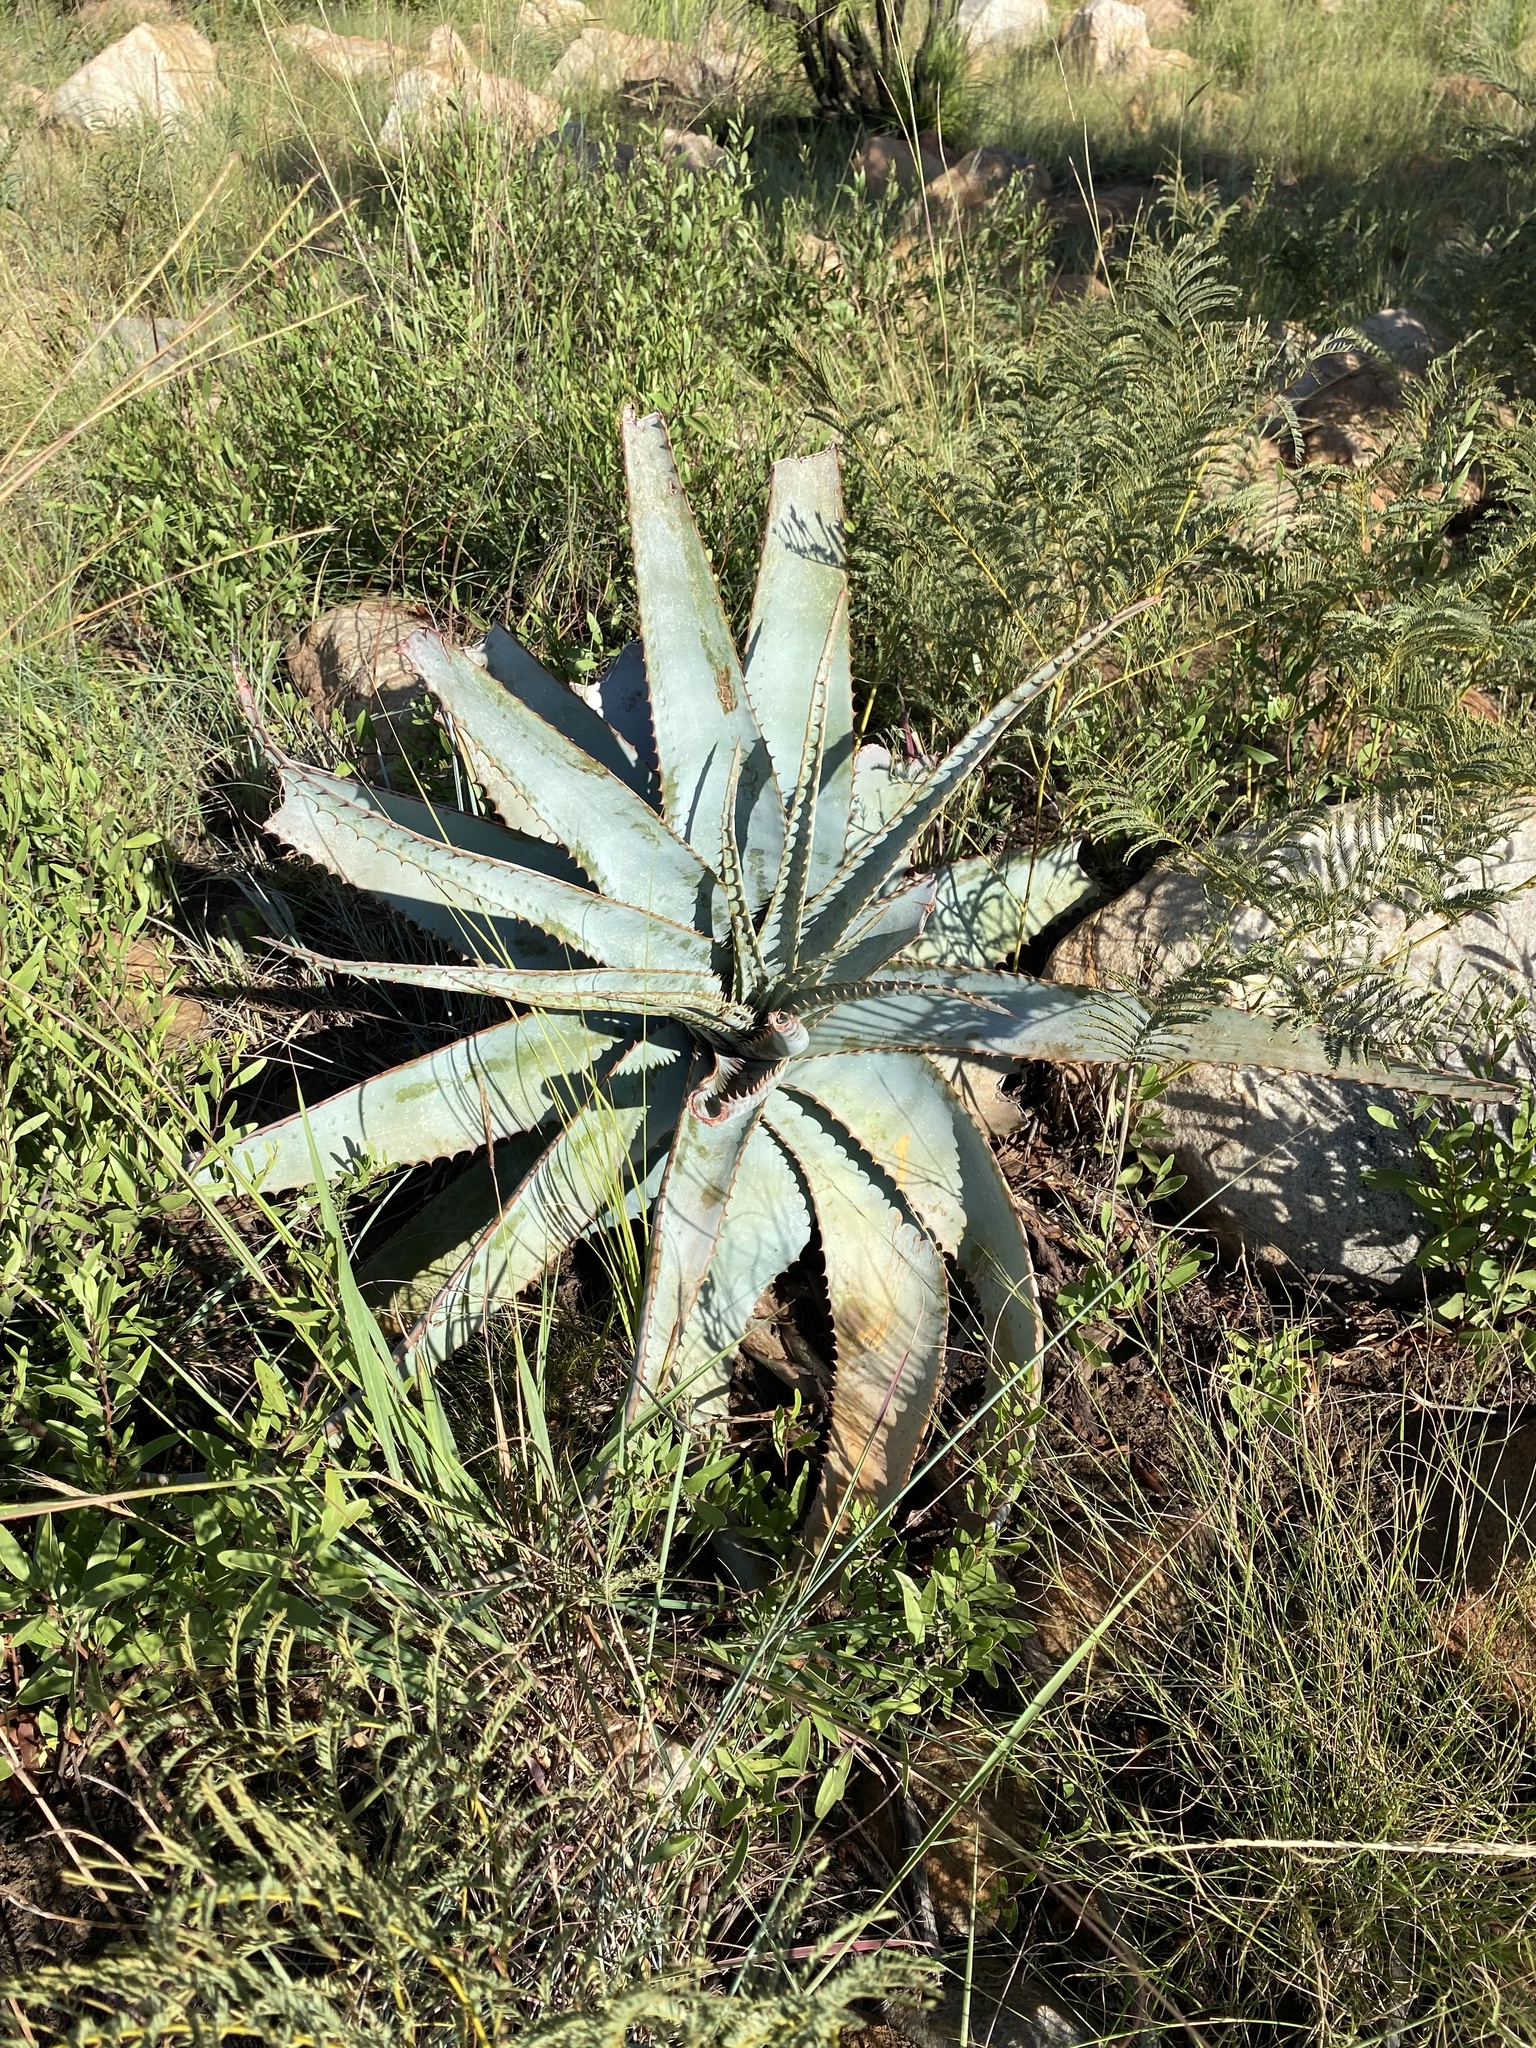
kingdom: Plantae
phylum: Tracheophyta
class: Liliopsida
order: Asparagales
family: Asphodelaceae
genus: Aloe
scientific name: Aloe suprafoliata
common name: Book aloe
